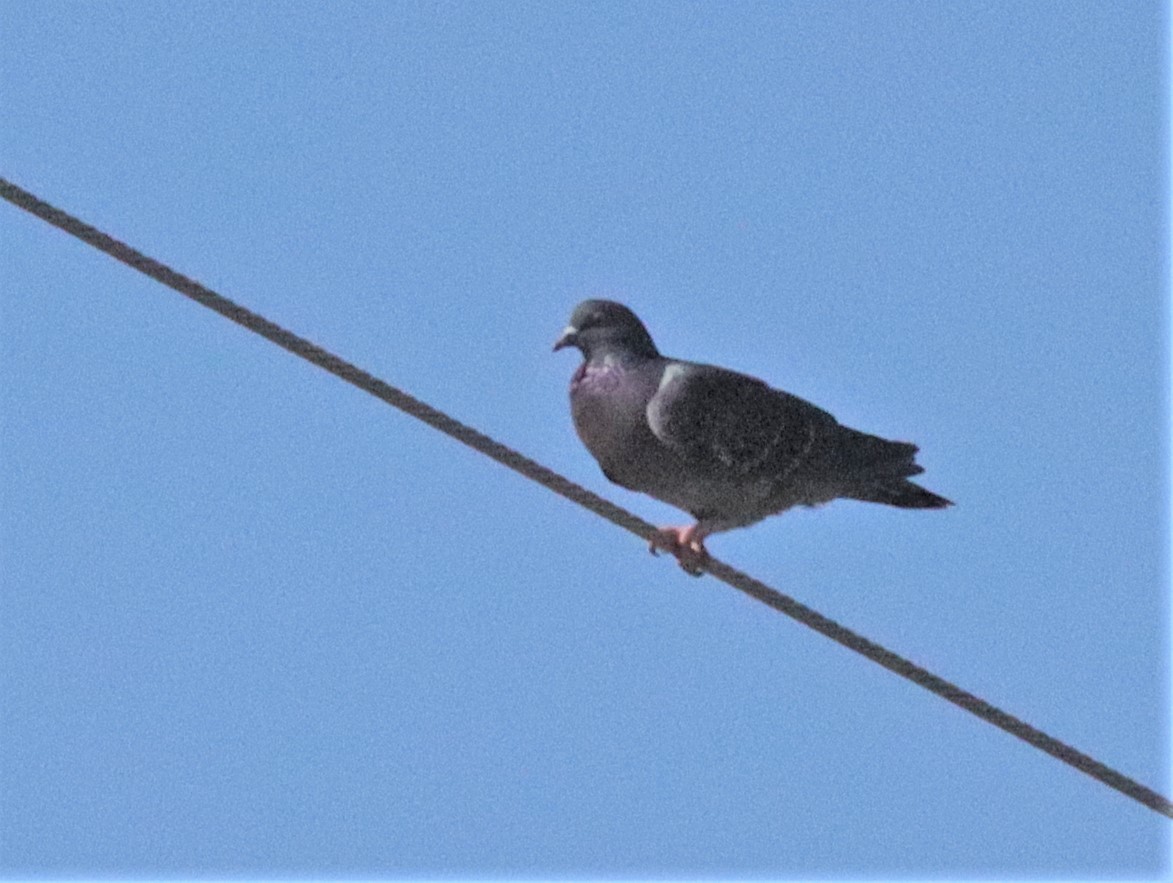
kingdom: Animalia
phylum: Chordata
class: Aves
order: Columbiformes
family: Columbidae
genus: Columba
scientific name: Columba livia
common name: Rock pigeon
